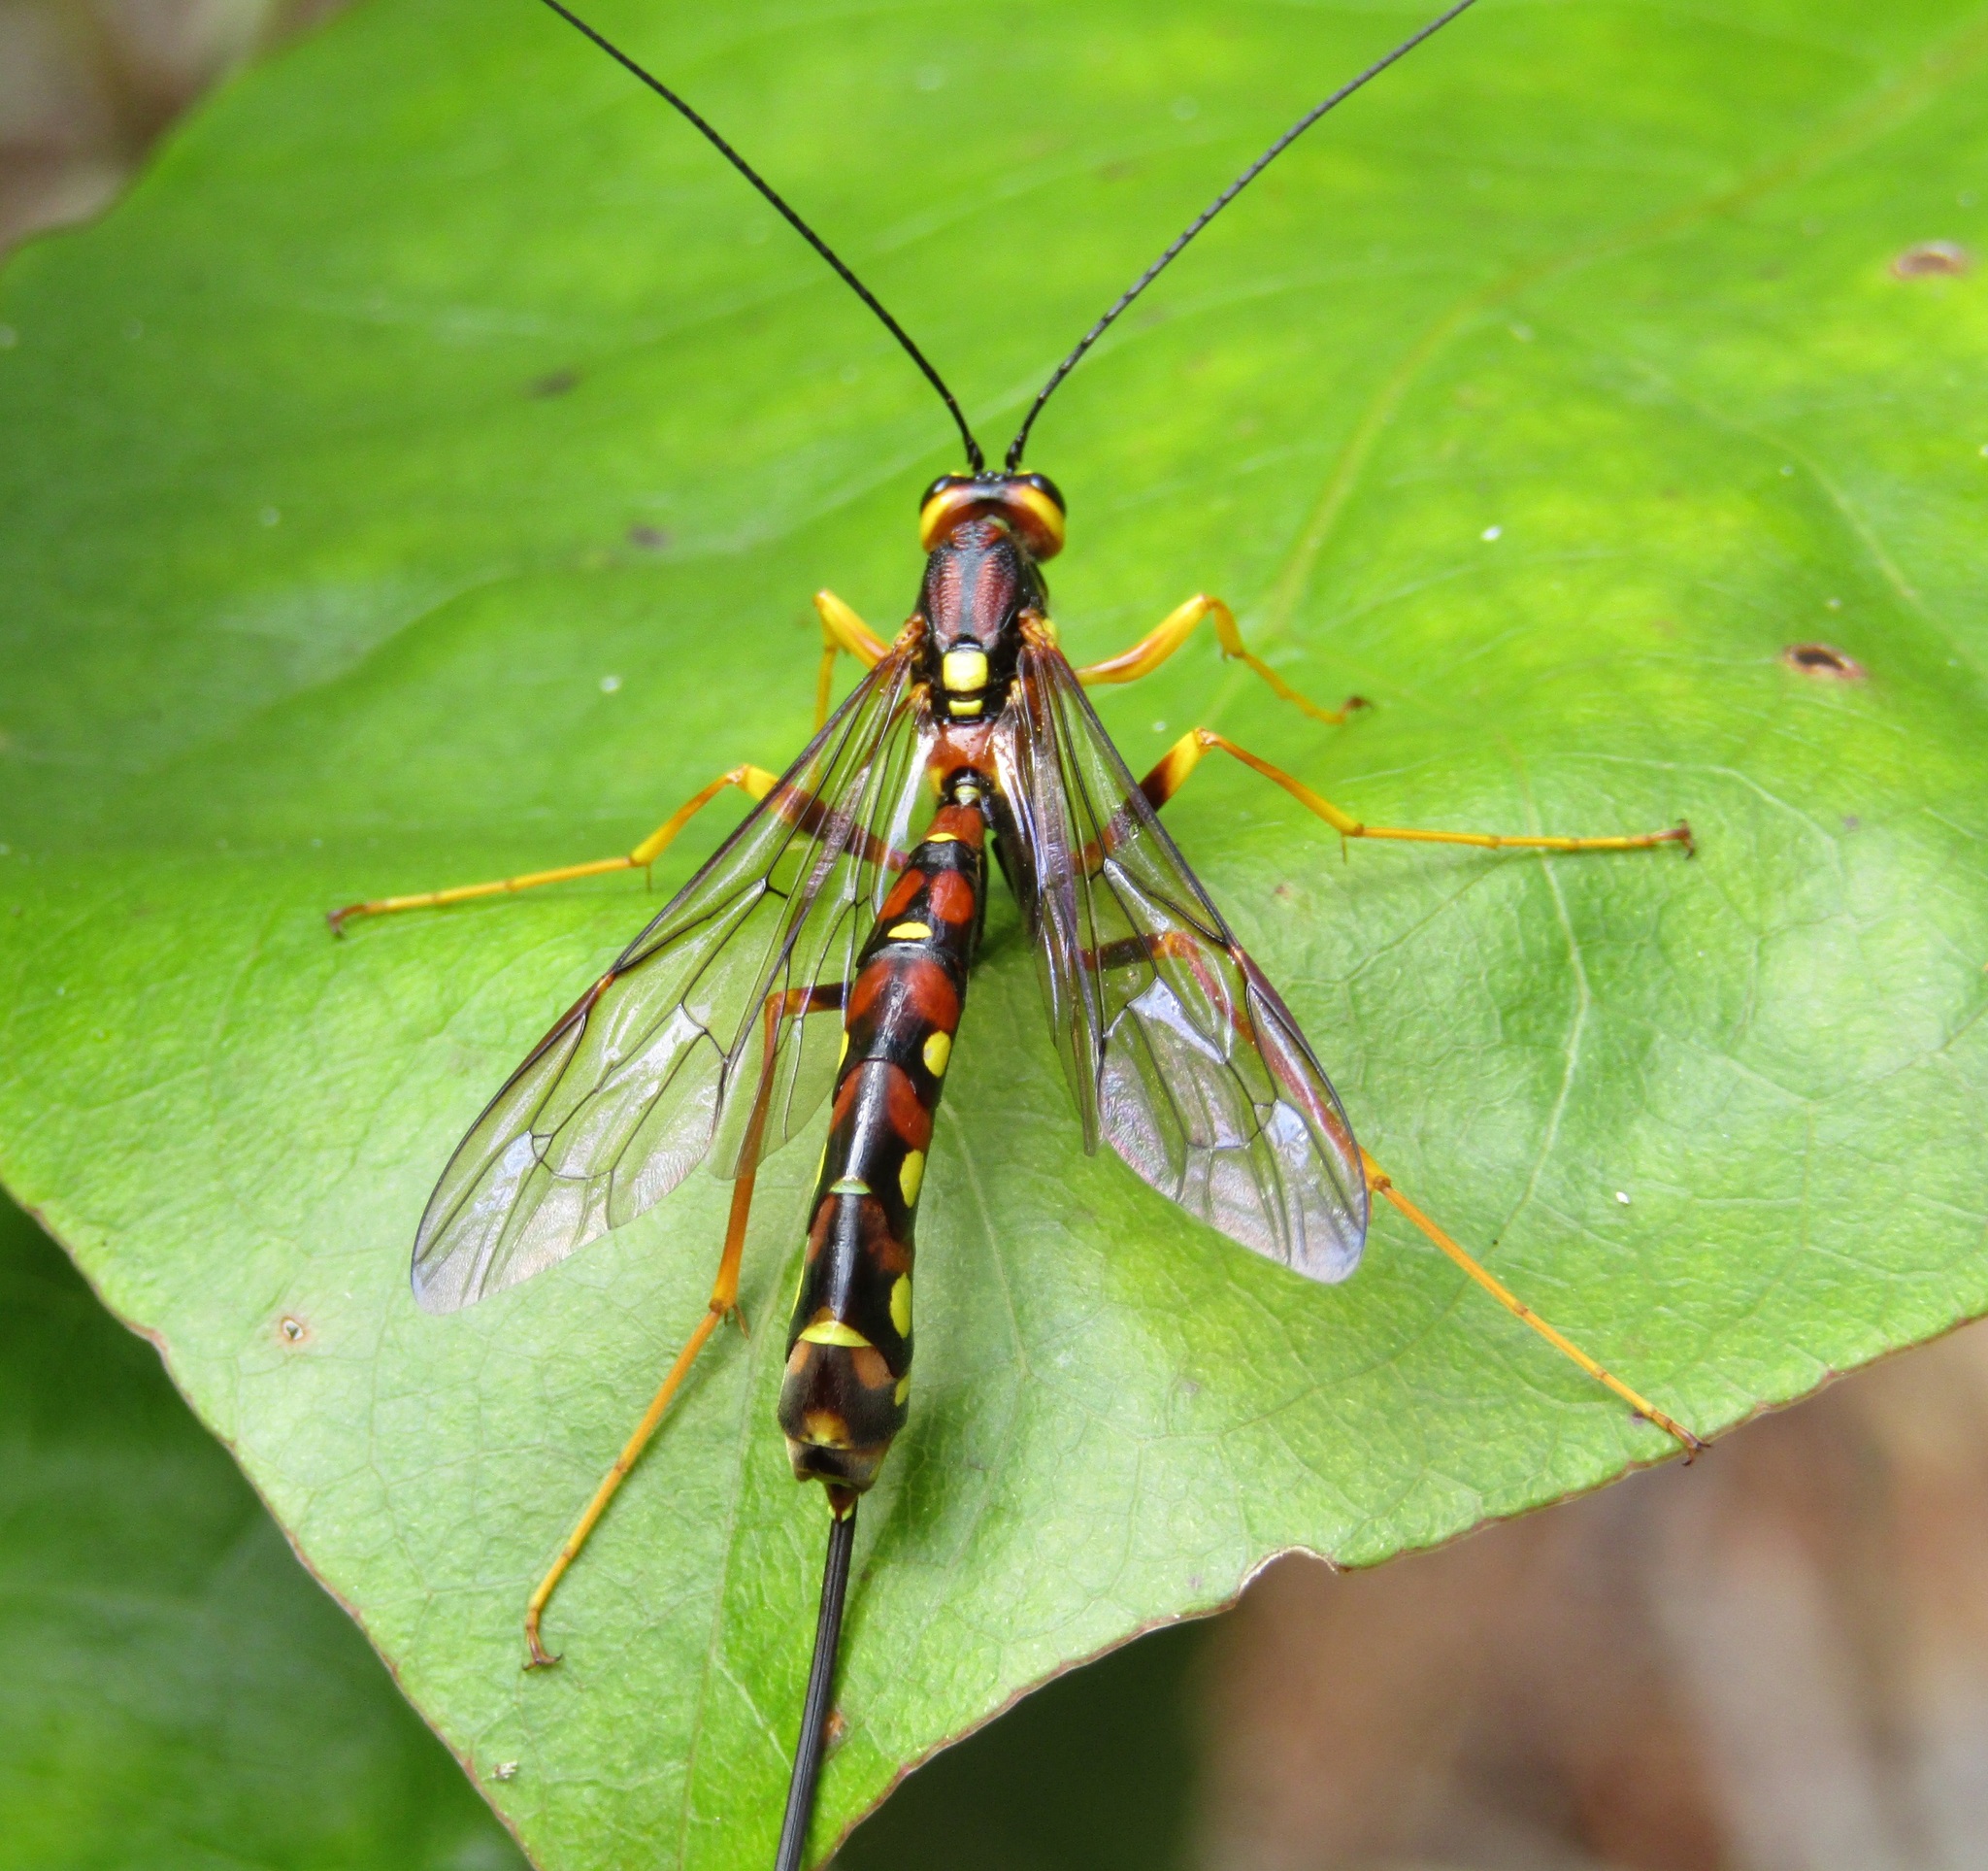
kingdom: Animalia
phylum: Arthropoda
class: Insecta
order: Hymenoptera
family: Ichneumonidae
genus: Megarhyssa
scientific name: Megarhyssa nortoni
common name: Norton's giant ichneumonid wasp
